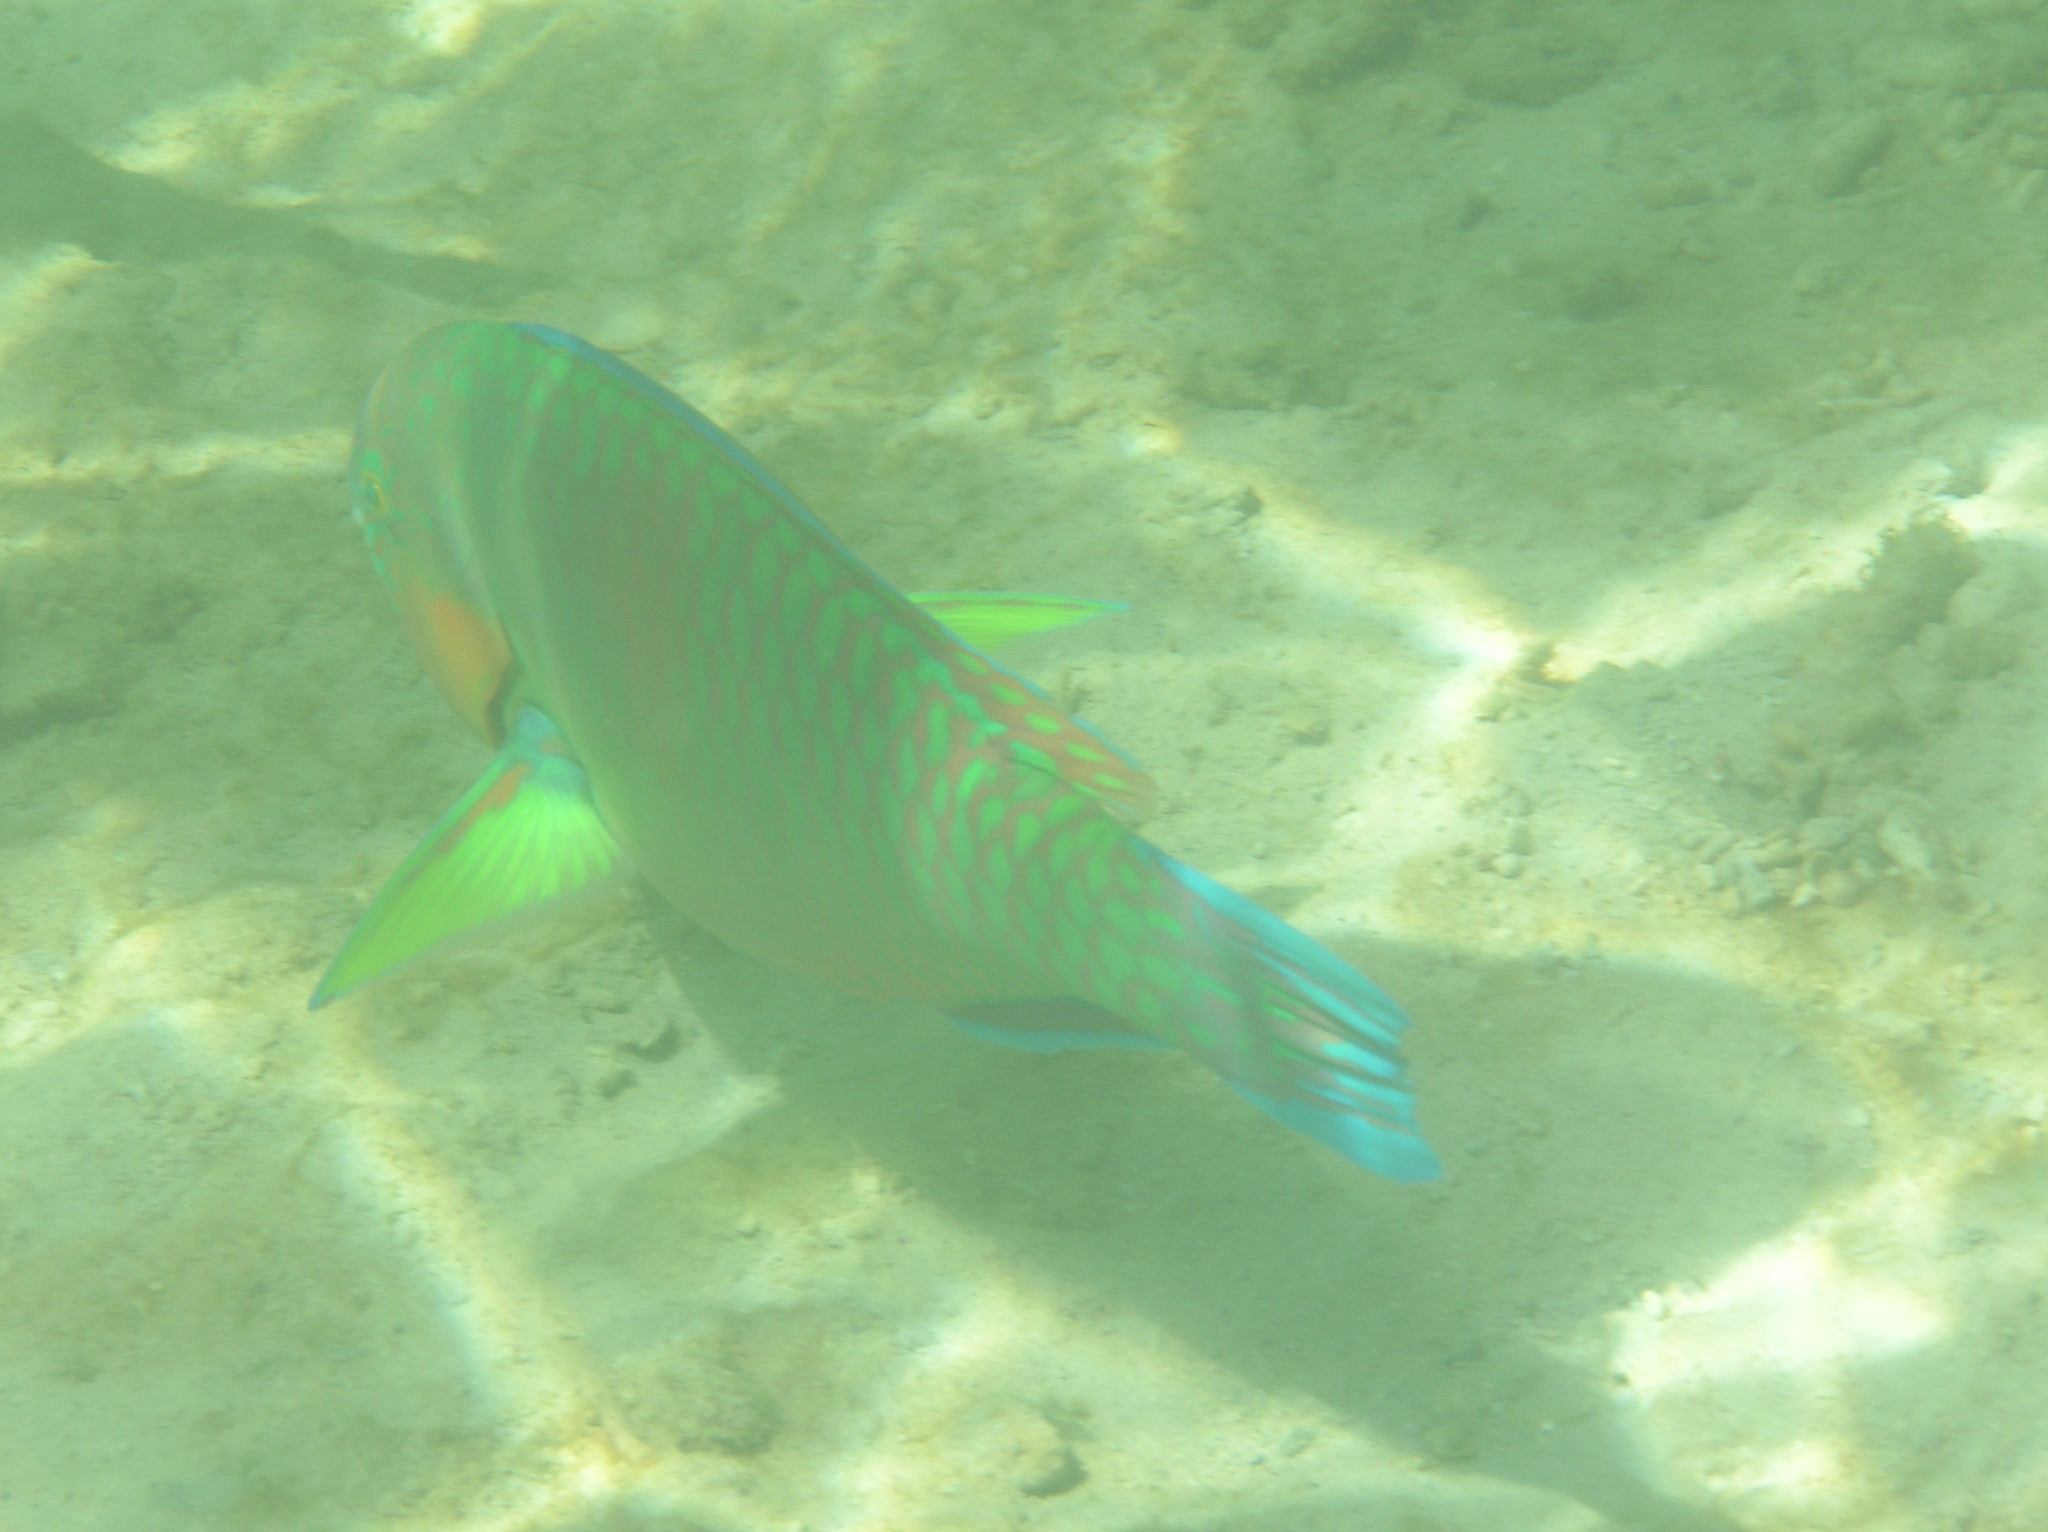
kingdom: Animalia
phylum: Chordata
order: Perciformes
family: Scaridae
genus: Scarus
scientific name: Scarus rivulatus
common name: Surf parrotfish
